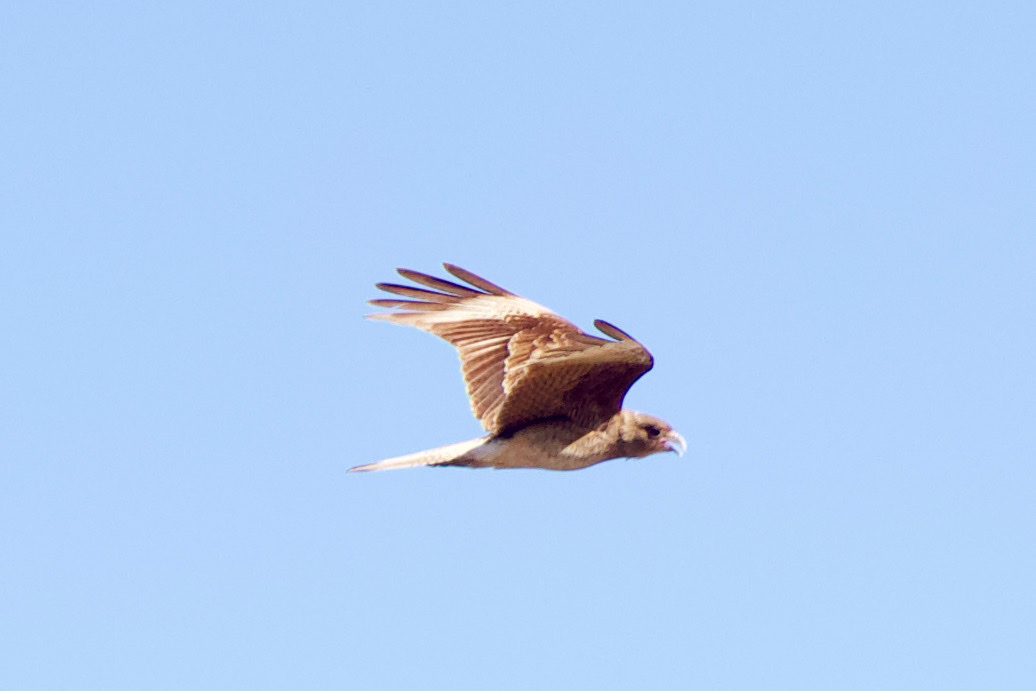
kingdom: Animalia
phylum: Chordata
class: Aves
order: Falconiformes
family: Falconidae
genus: Daptrius
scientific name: Daptrius
